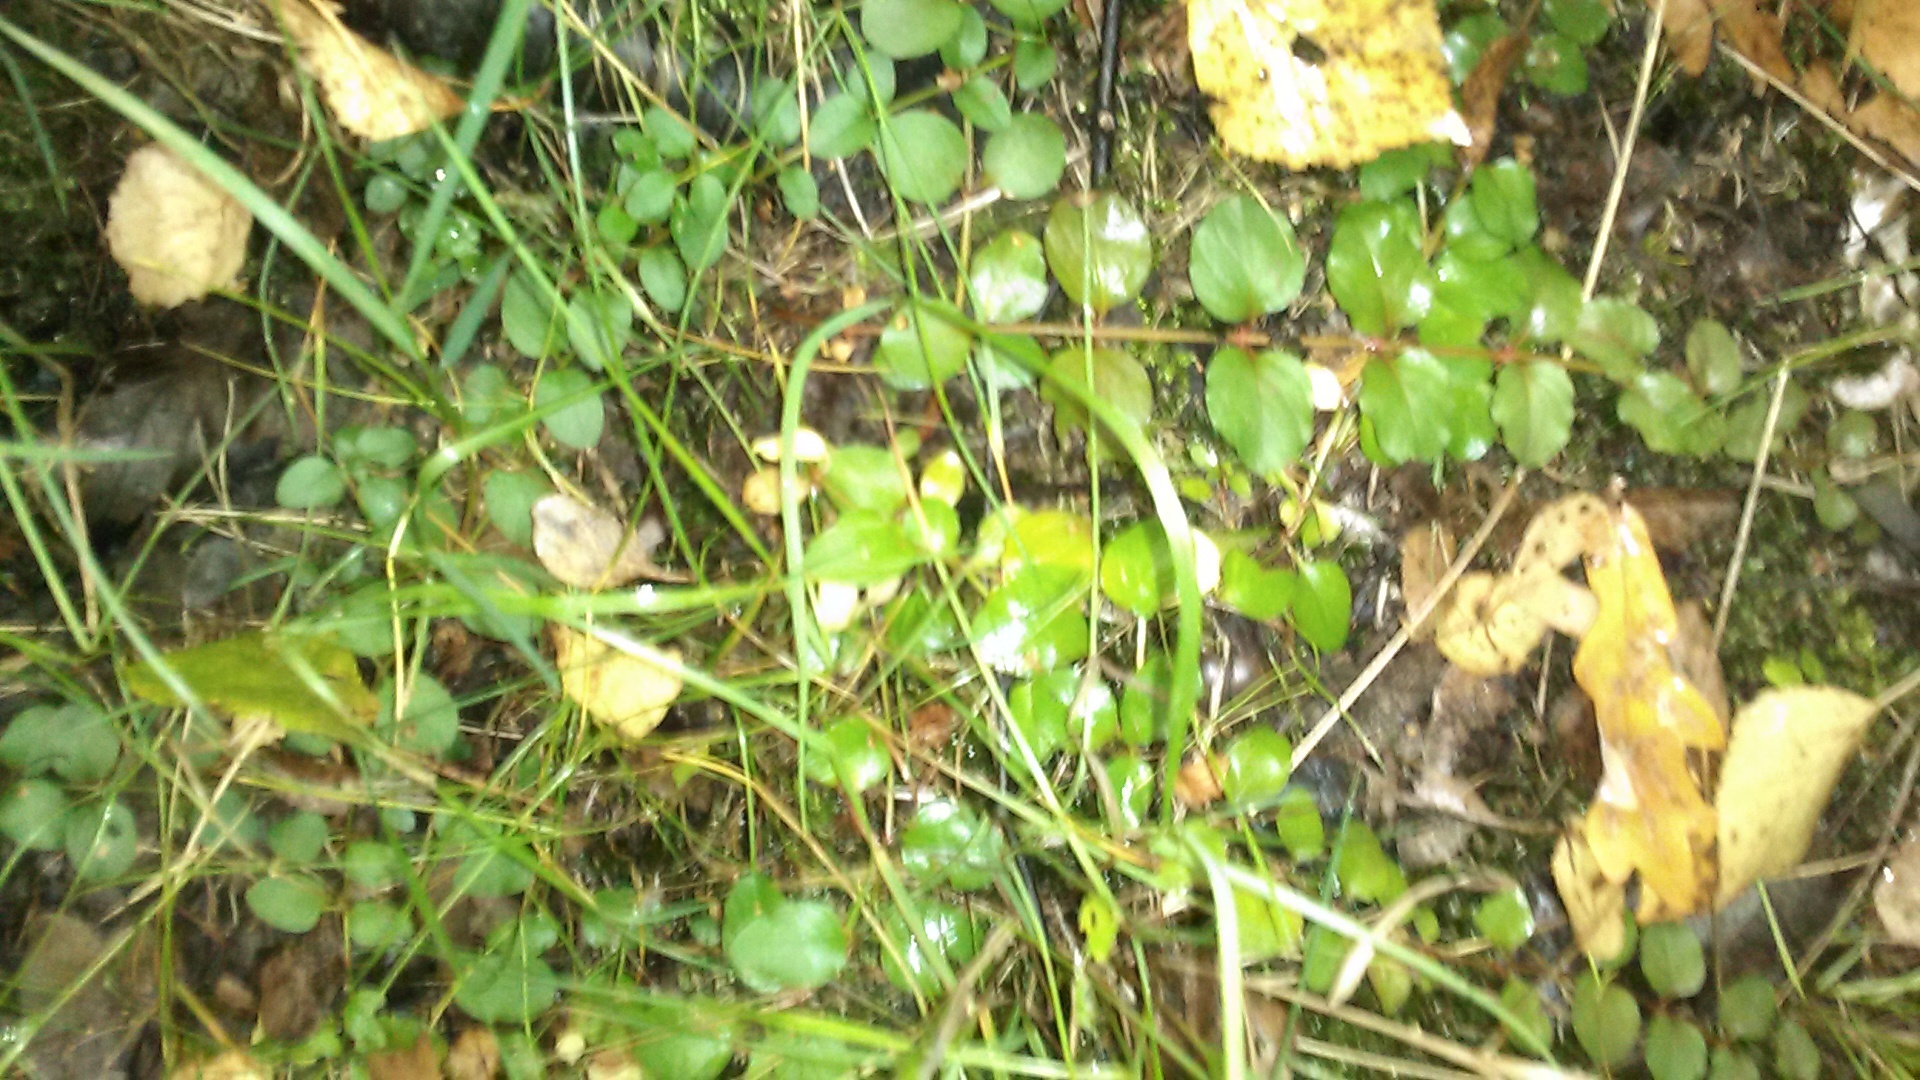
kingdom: Plantae
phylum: Tracheophyta
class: Magnoliopsida
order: Ericales
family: Primulaceae
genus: Lysimachia
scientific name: Lysimachia nummularia
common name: Moneywort
